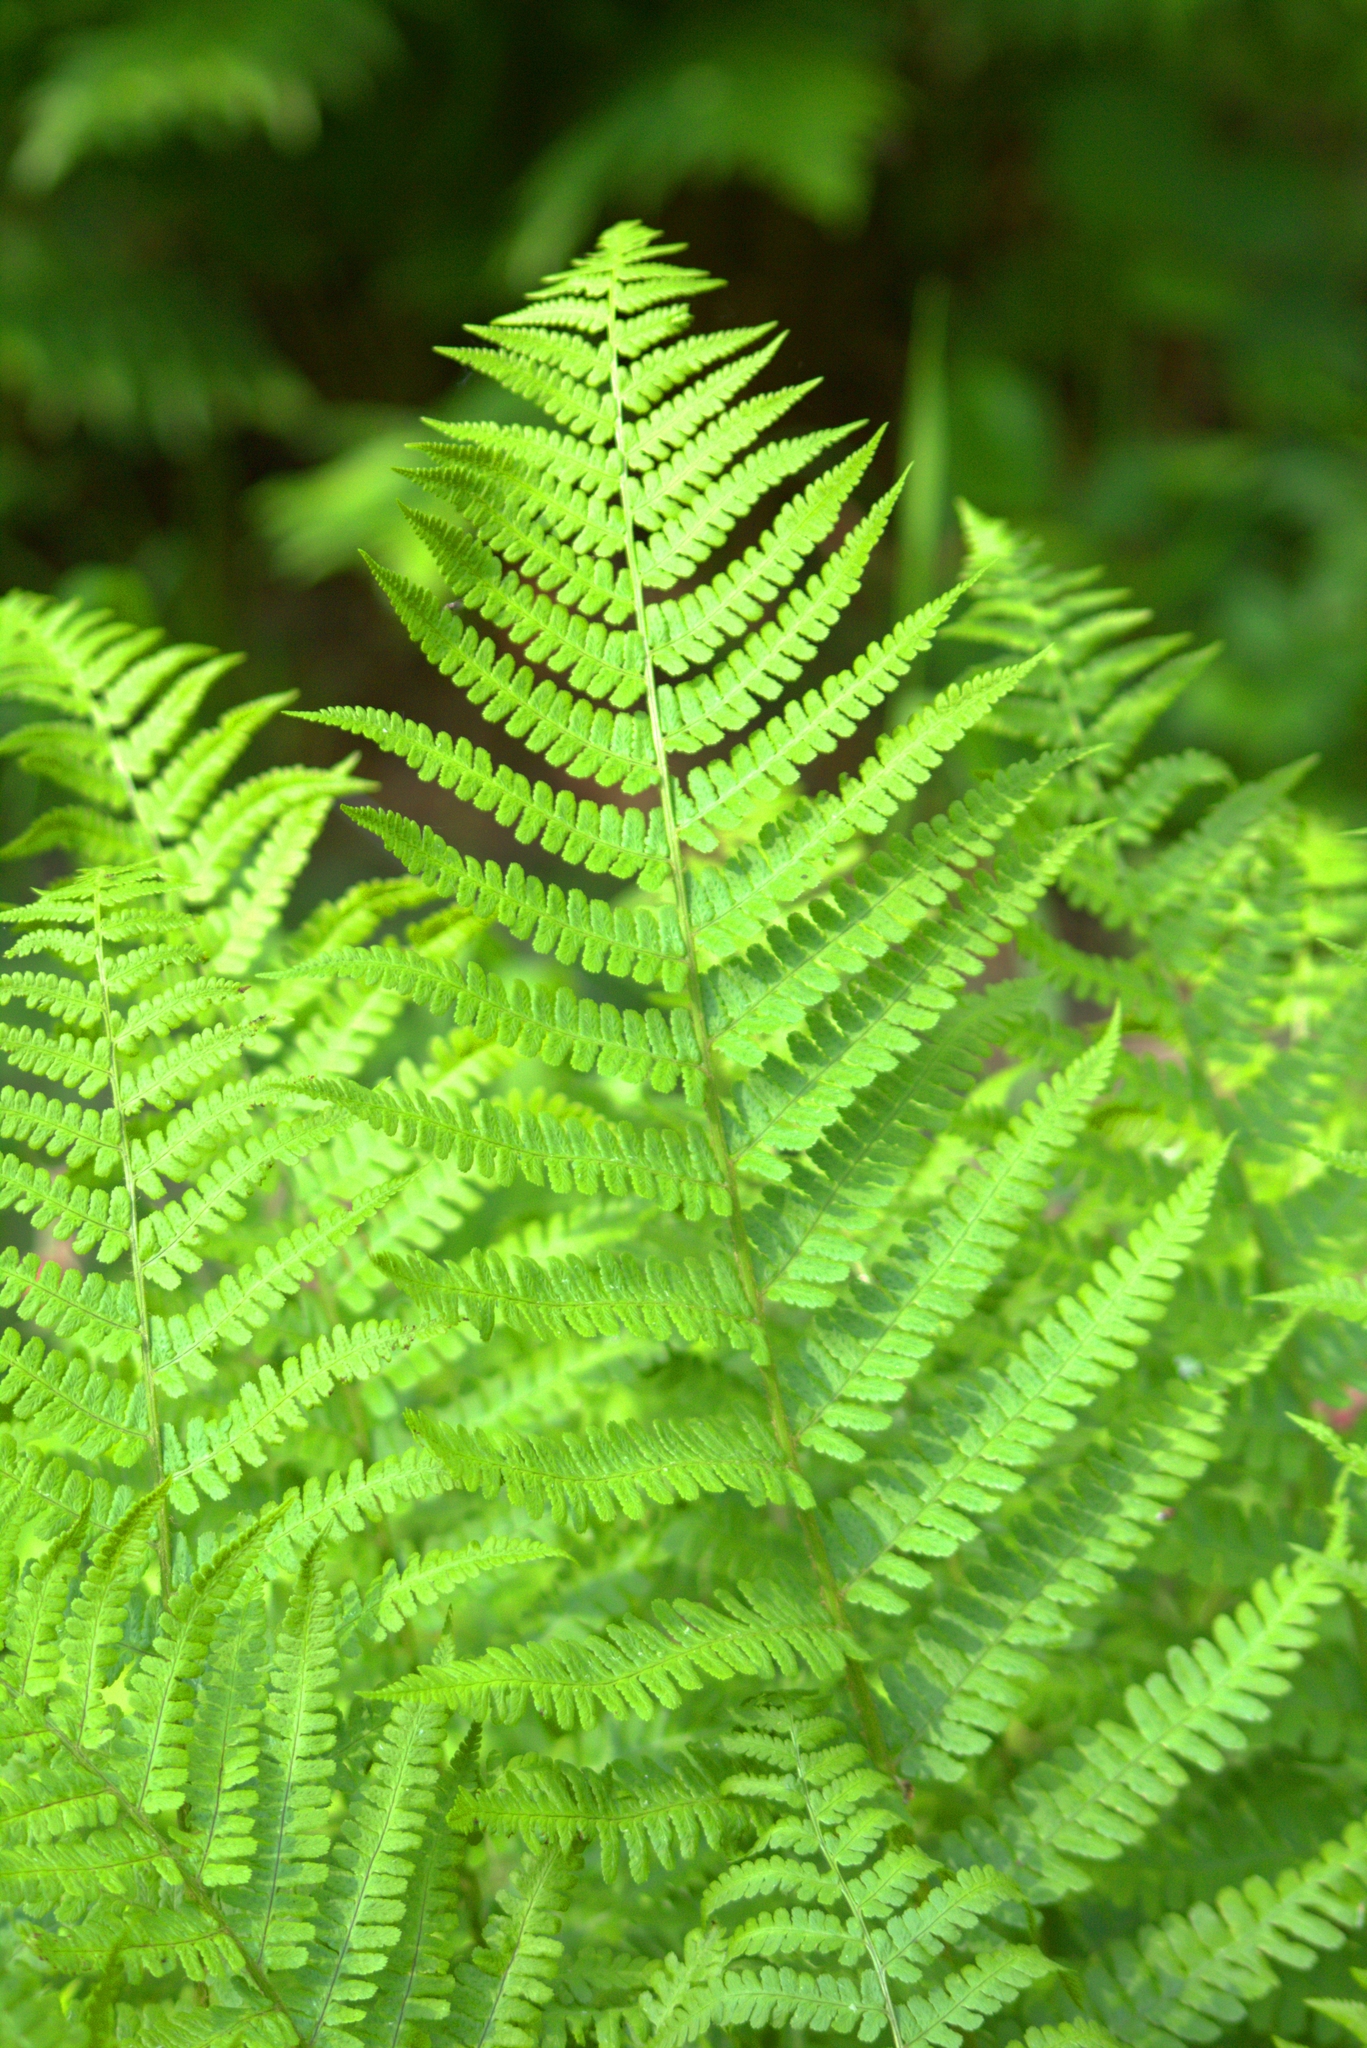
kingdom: Plantae
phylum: Tracheophyta
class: Polypodiopsida
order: Polypodiales
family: Dryopteridaceae
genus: Dryopteris
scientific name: Dryopteris filix-mas
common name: Male fern
